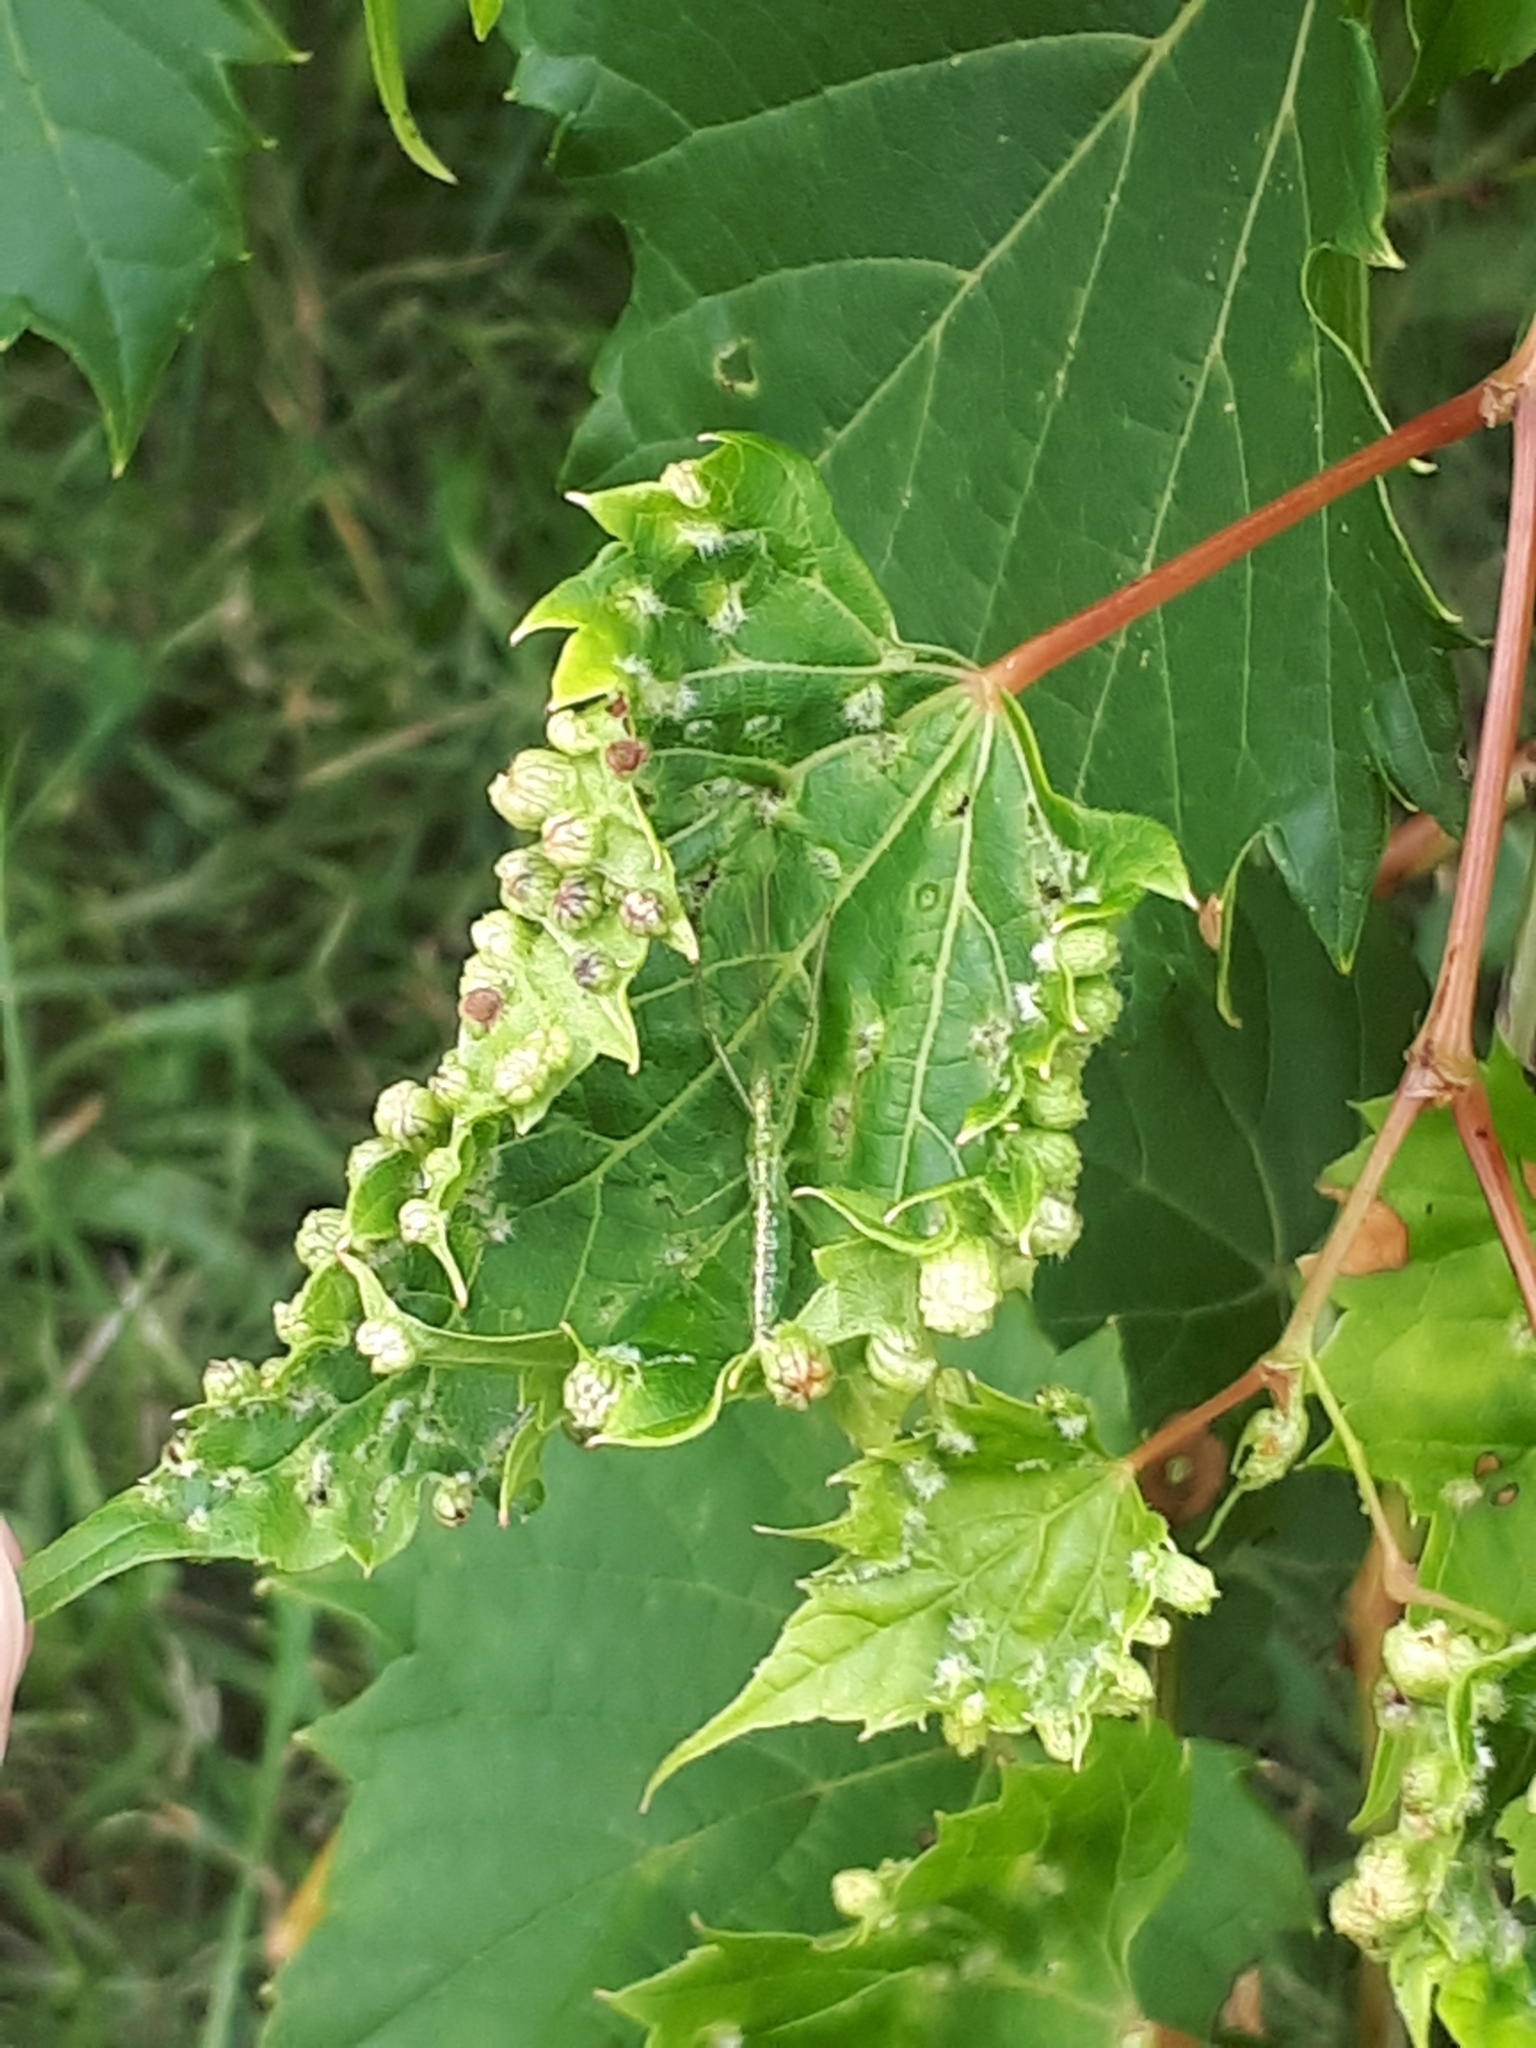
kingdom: Animalia
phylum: Arthropoda
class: Insecta
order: Hemiptera
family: Phylloxeridae
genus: Daktulosphaira
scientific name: Daktulosphaira vitifoliae
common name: Grape phylloxera
